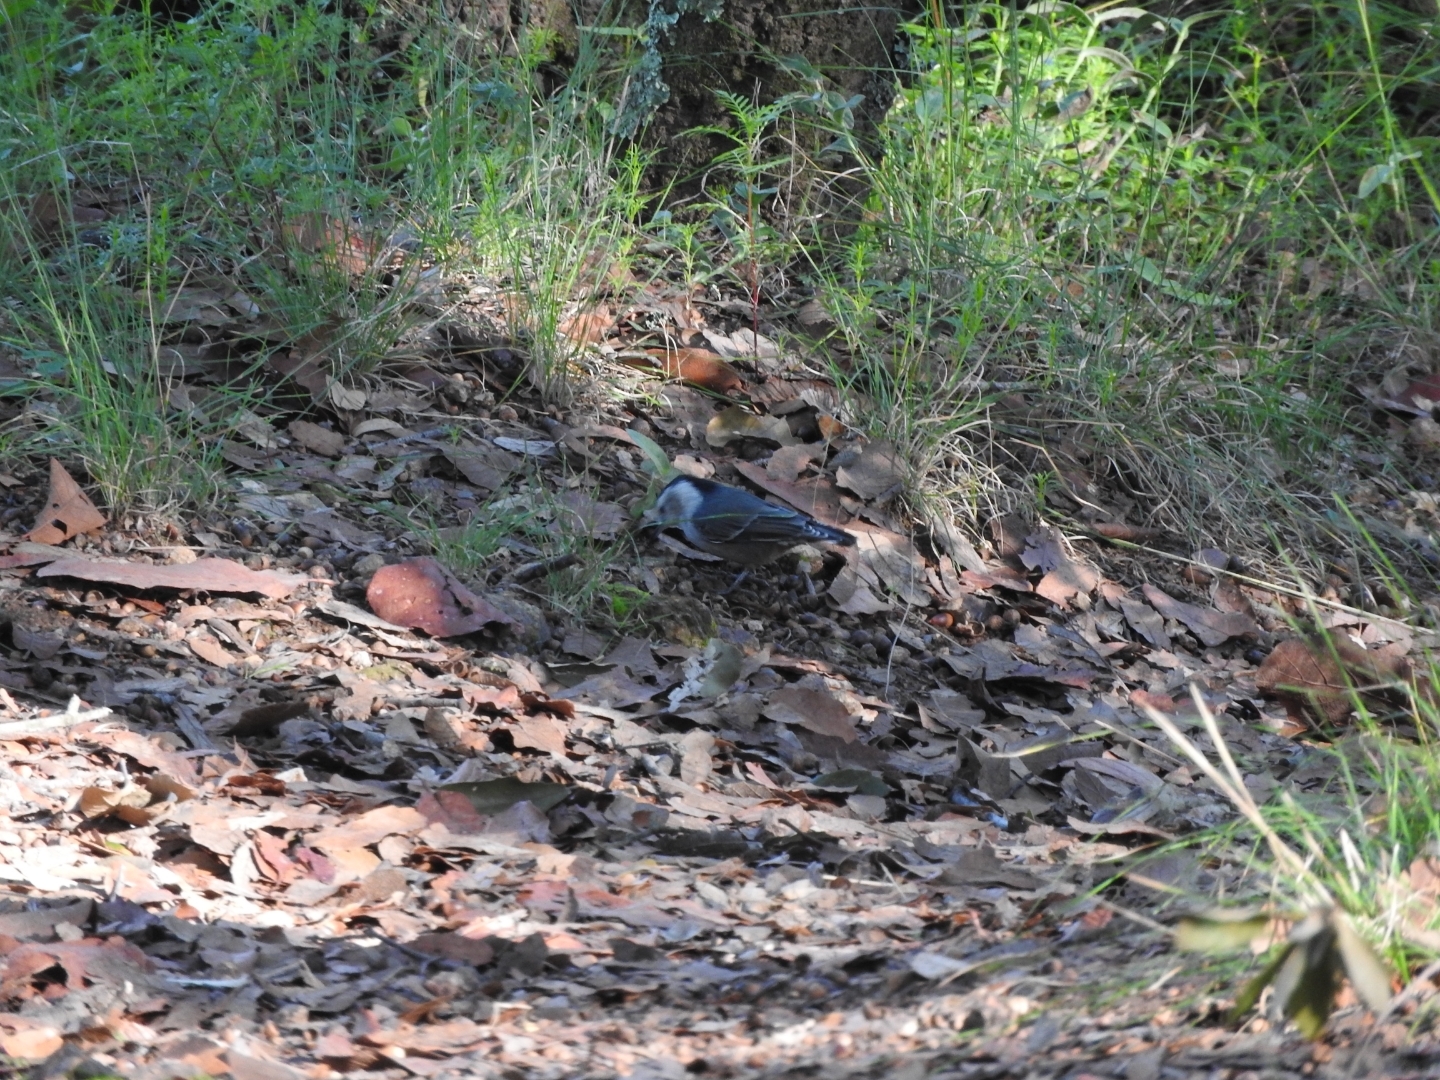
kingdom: Animalia
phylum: Chordata
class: Aves
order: Passeriformes
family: Sittidae
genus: Sitta
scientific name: Sitta carolinensis
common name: White-breasted nuthatch
